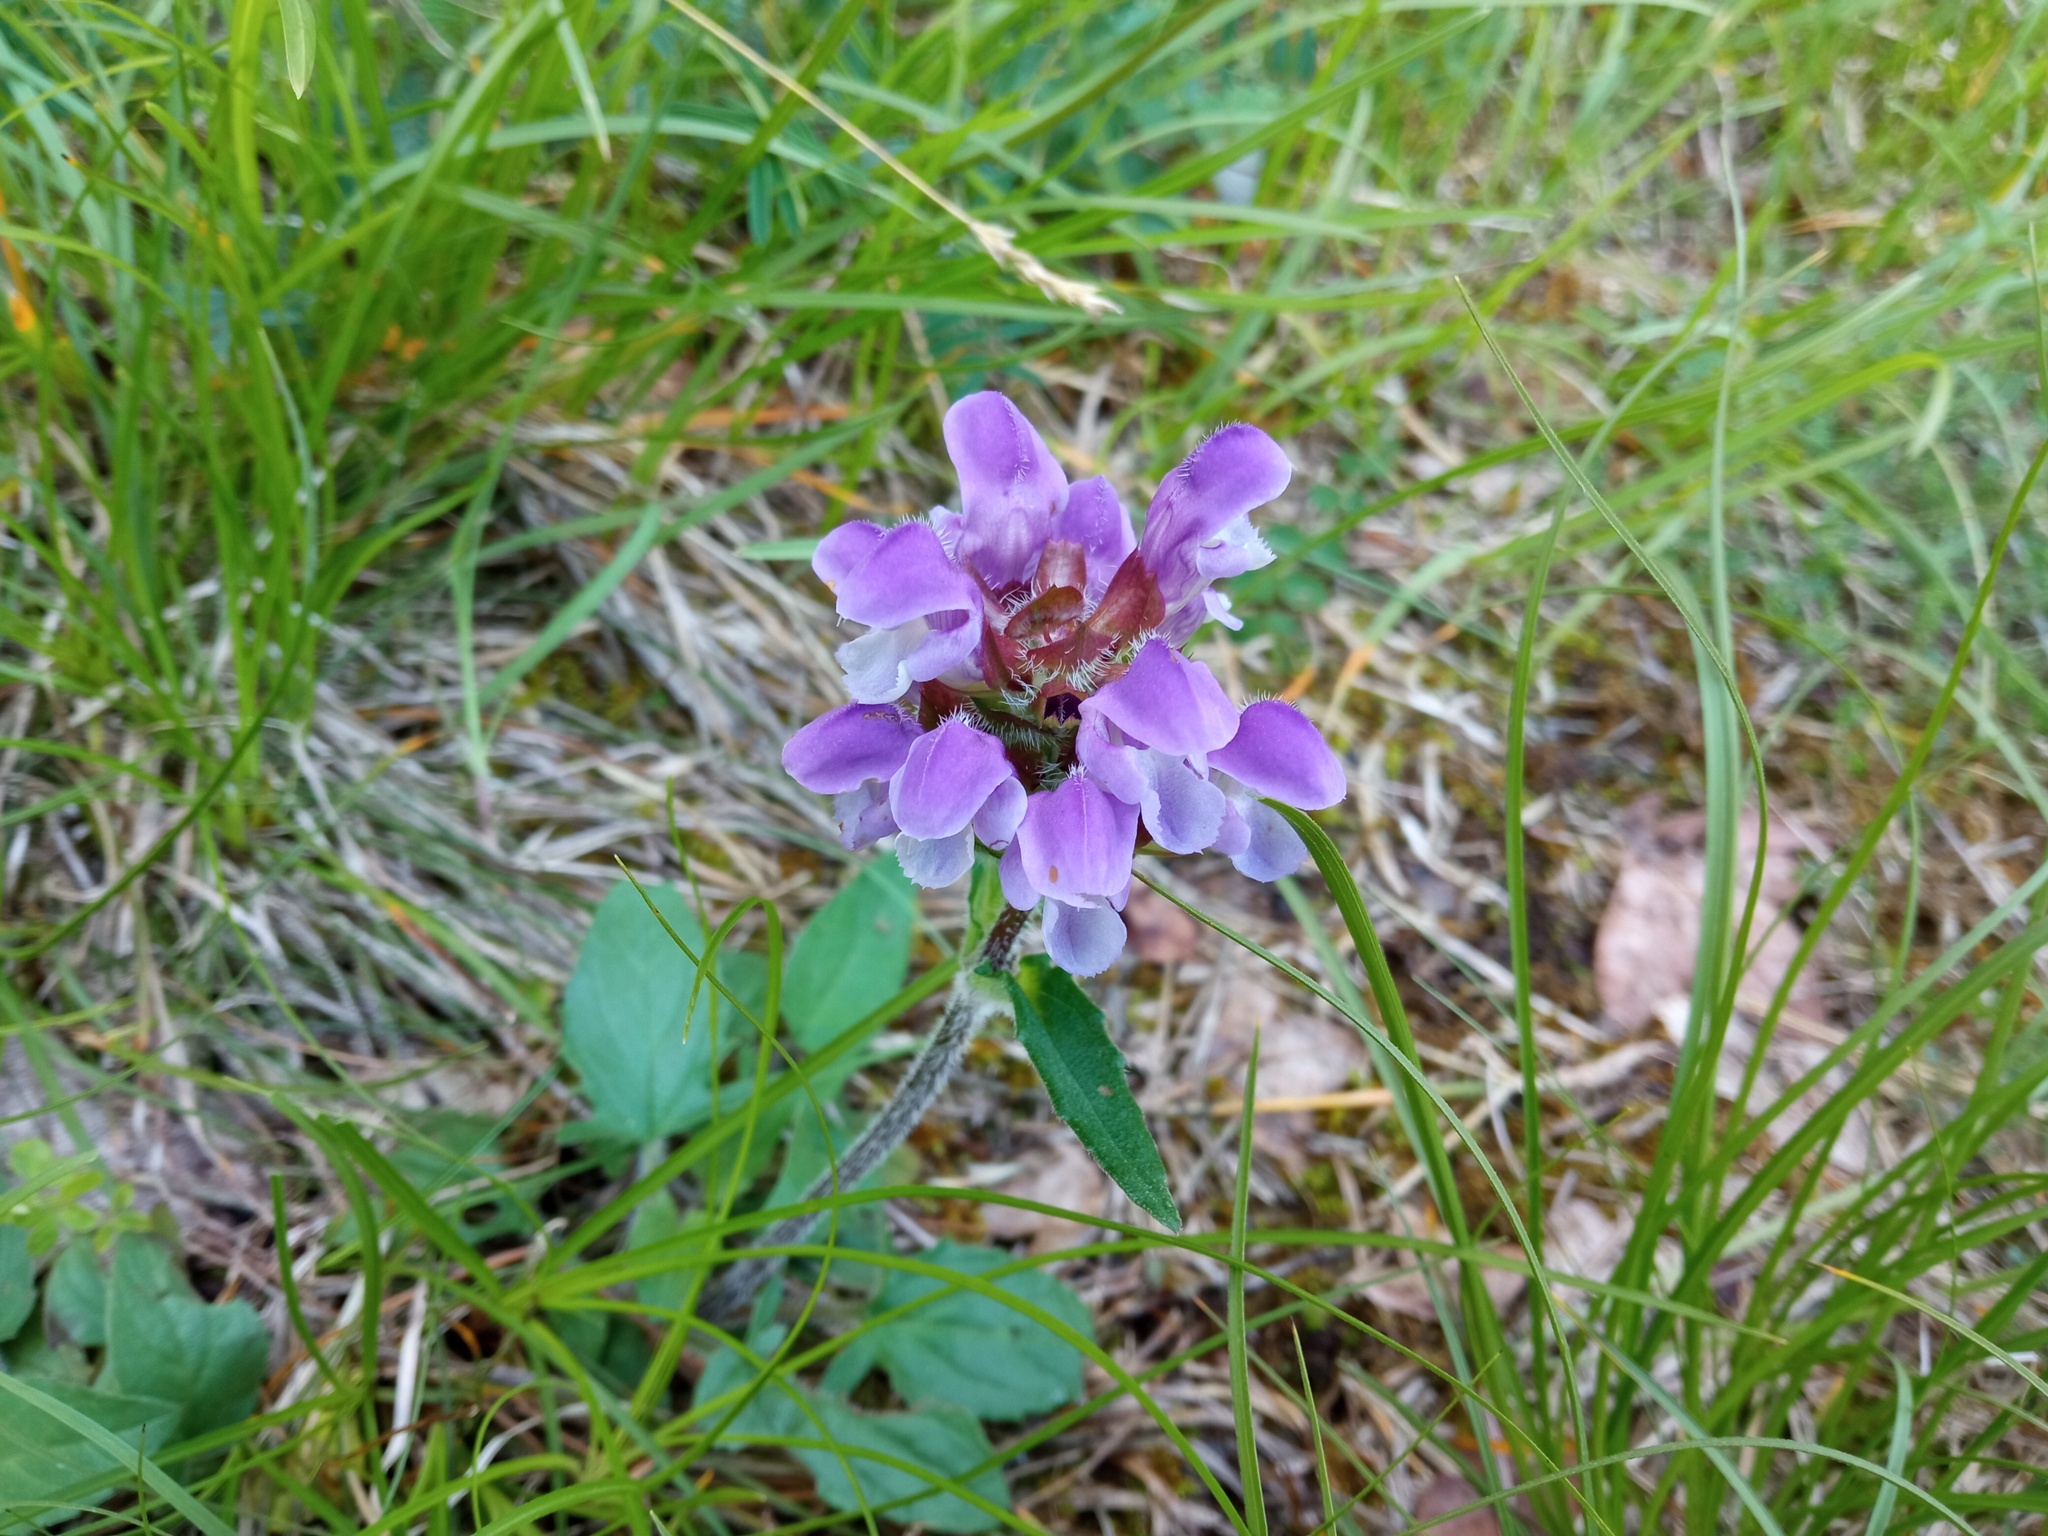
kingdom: Plantae
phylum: Tracheophyta
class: Magnoliopsida
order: Lamiales
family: Lamiaceae
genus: Prunella
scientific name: Prunella grandiflora
